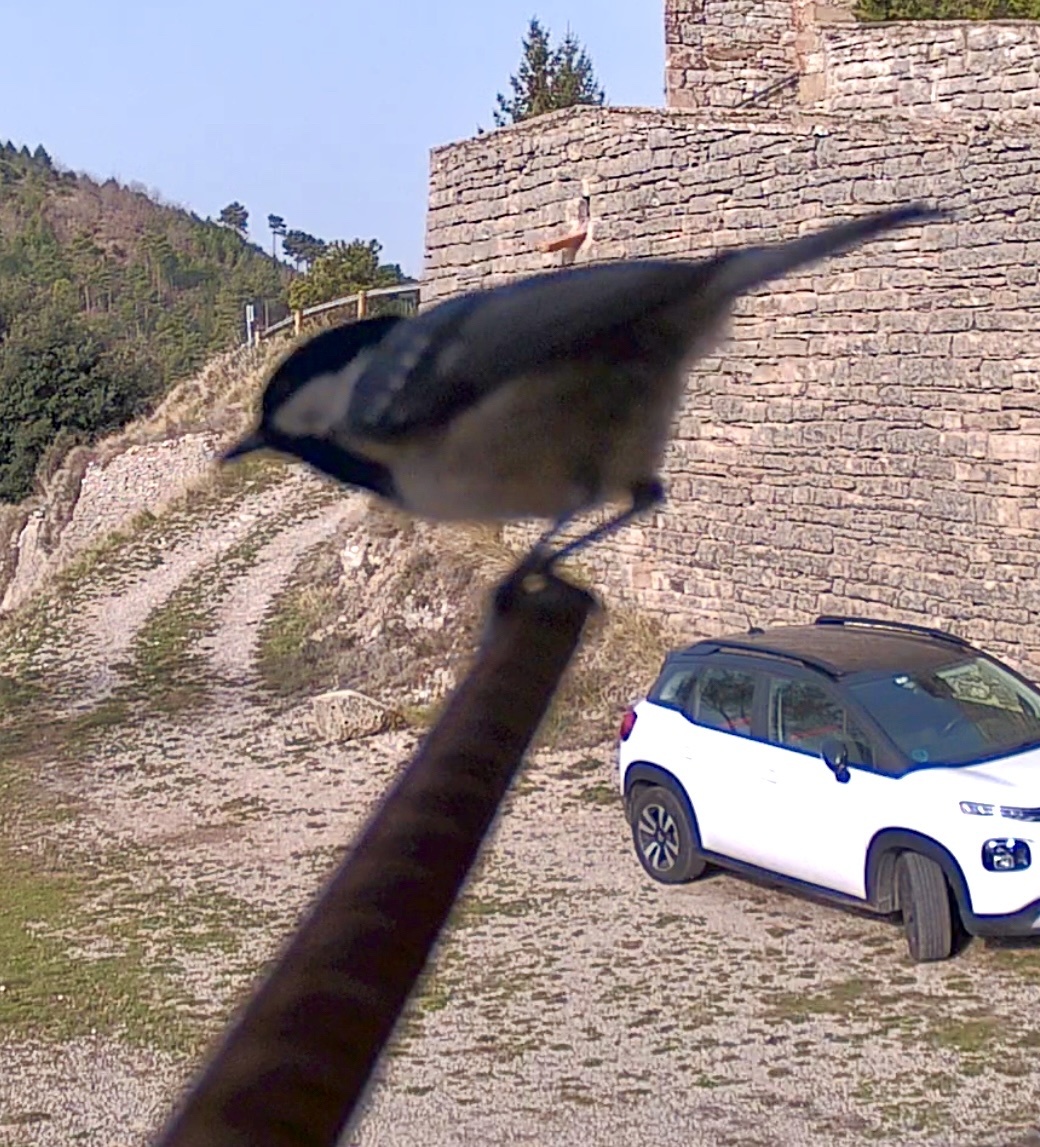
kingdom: Animalia
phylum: Chordata
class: Aves
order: Passeriformes
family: Paridae
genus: Periparus
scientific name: Periparus ater
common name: Coal tit
